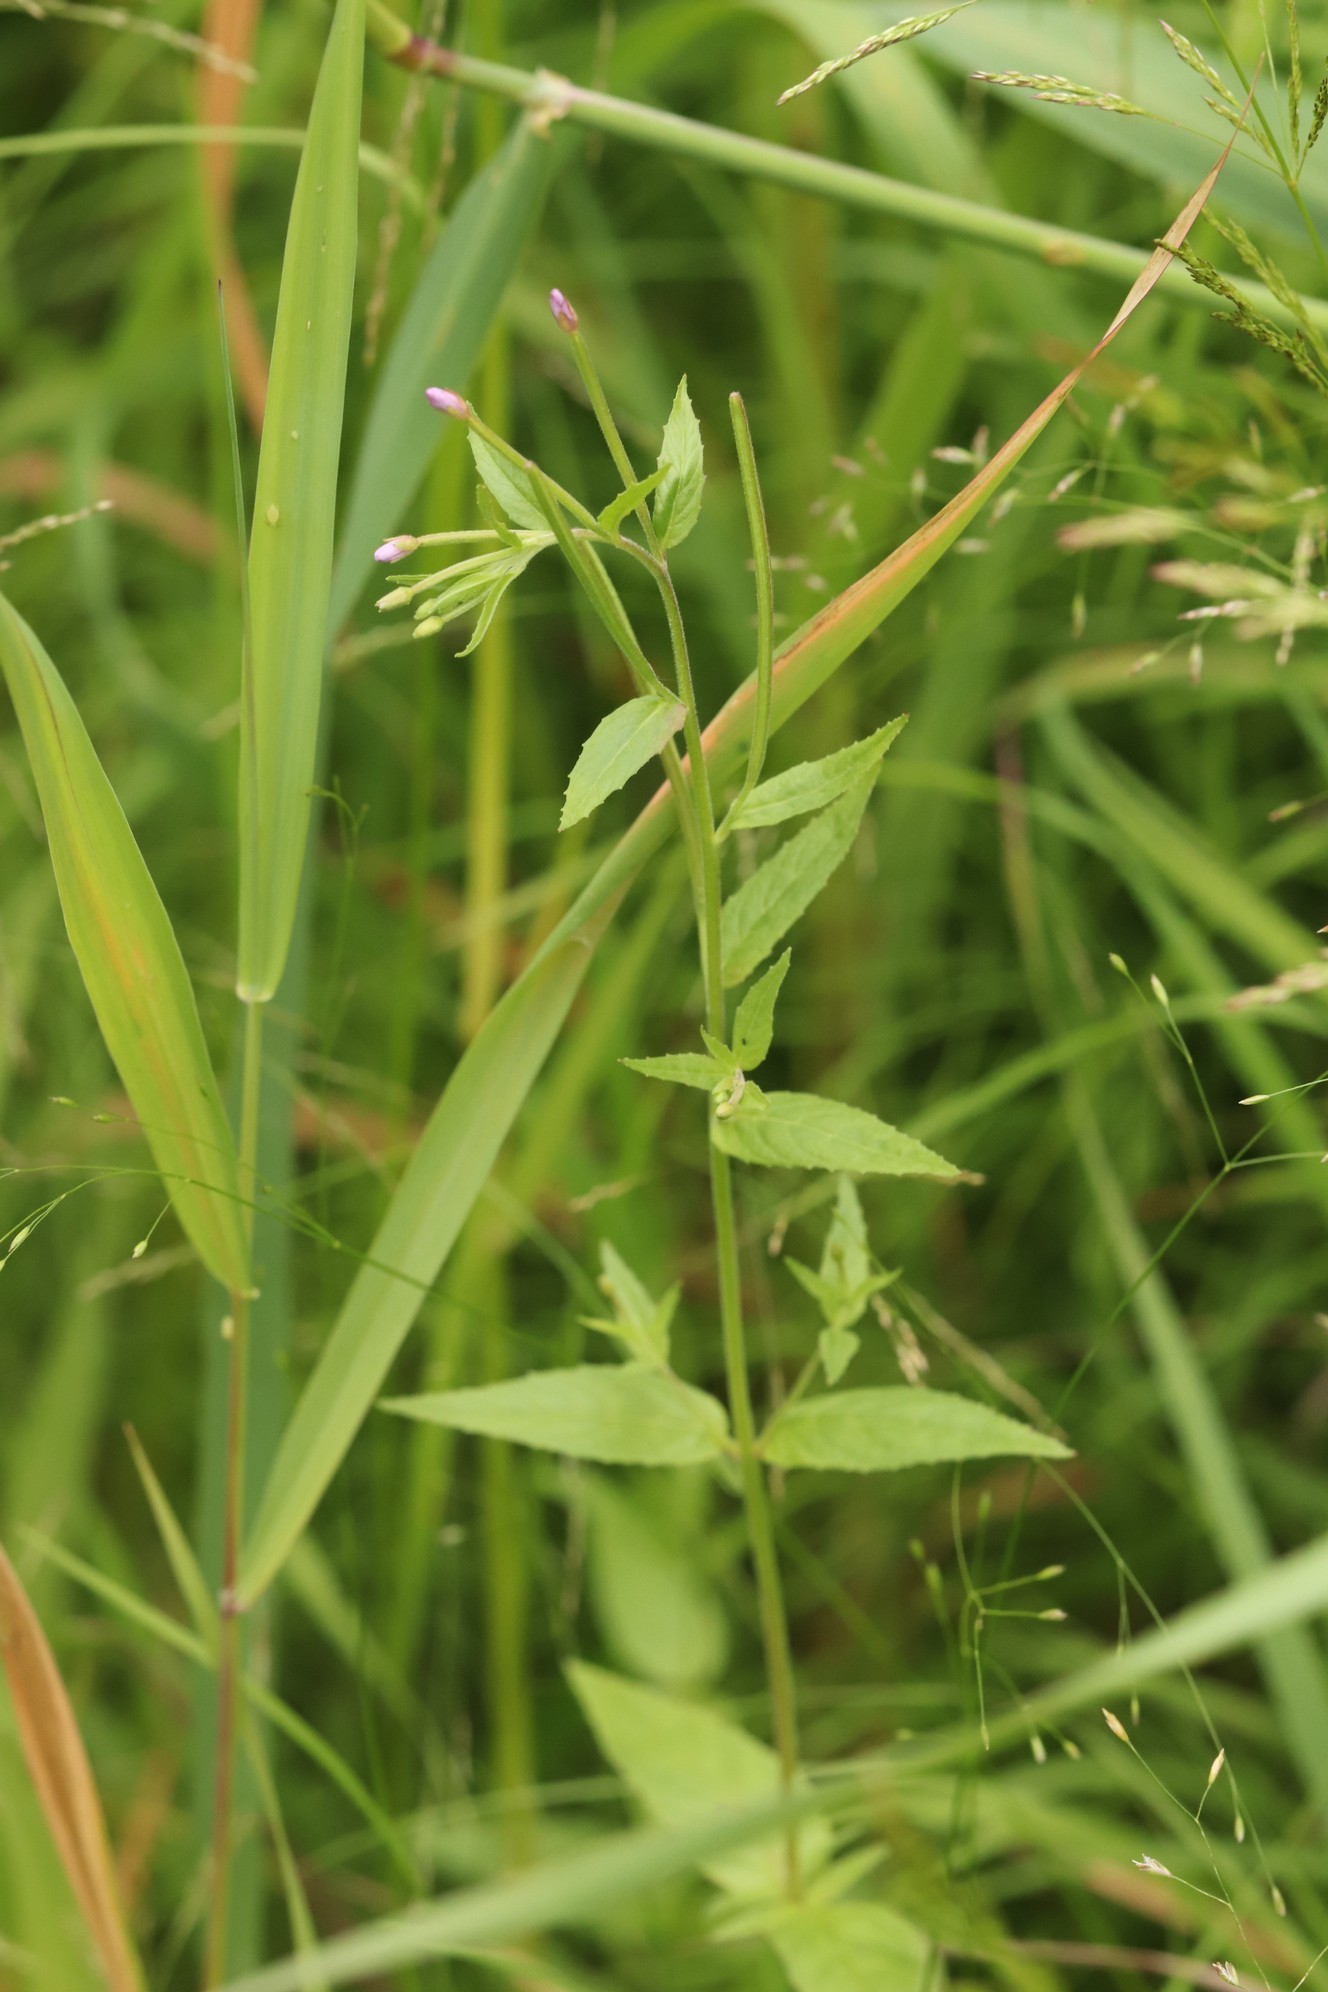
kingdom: Plantae
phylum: Tracheophyta
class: Magnoliopsida
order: Myrtales
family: Onagraceae
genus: Epilobium
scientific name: Epilobium ciliatum
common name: American willowherb
